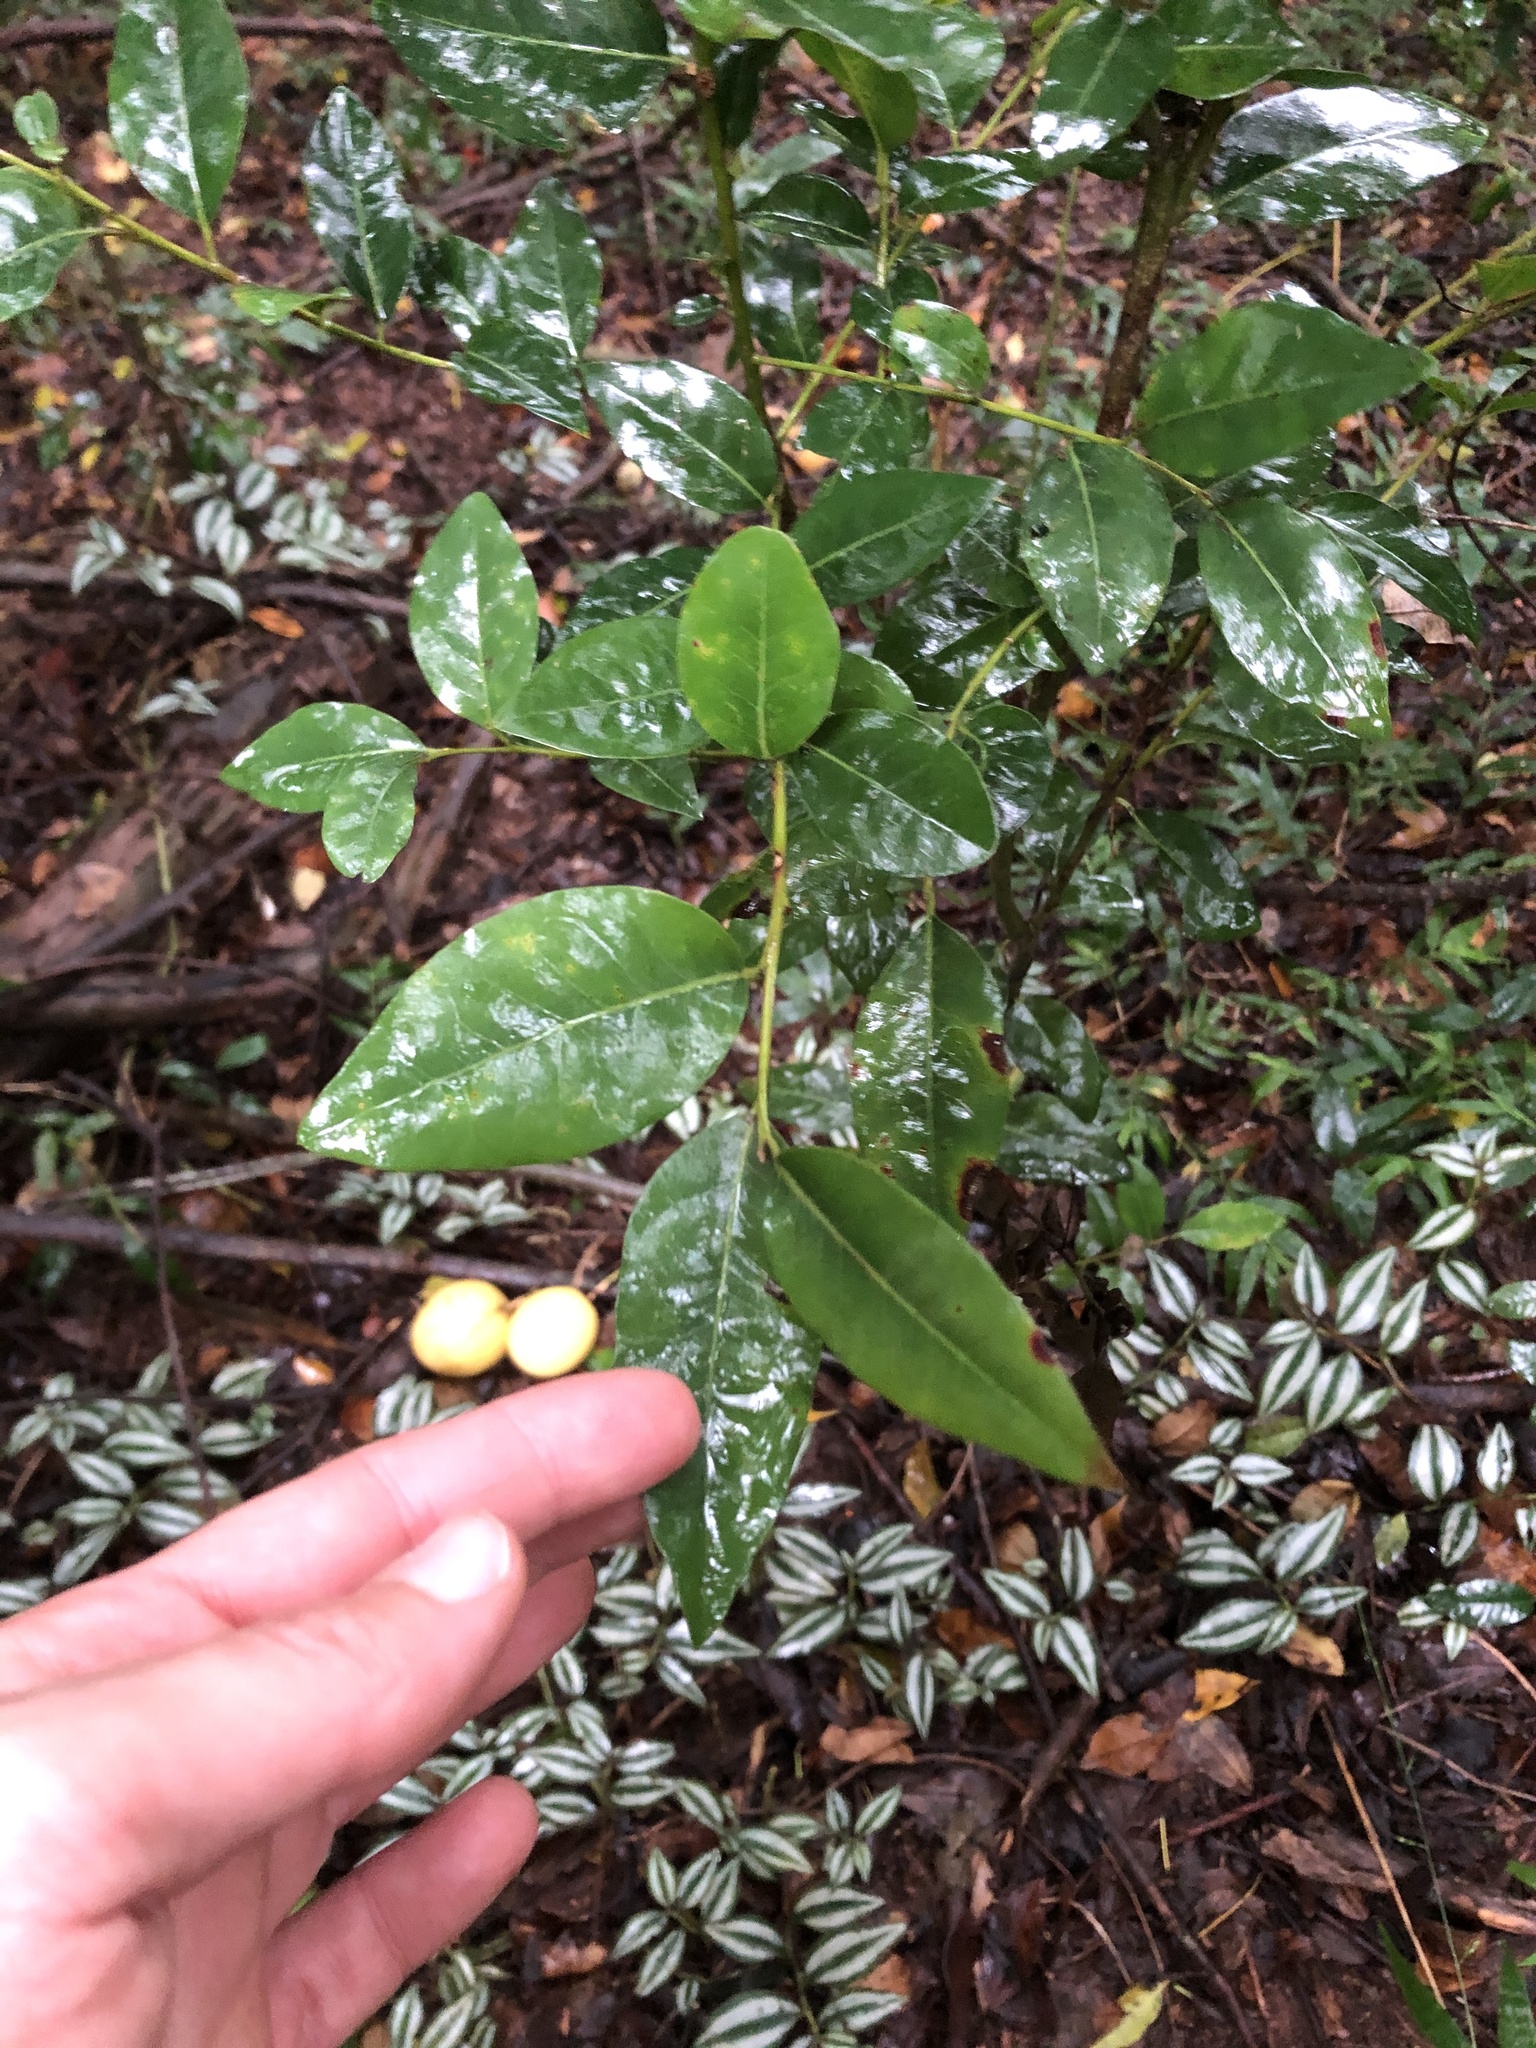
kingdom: Plantae
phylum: Tracheophyta
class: Magnoliopsida
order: Metteniusales
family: Metteniusaceae
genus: Apodytes
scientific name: Apodytes dimidiata
